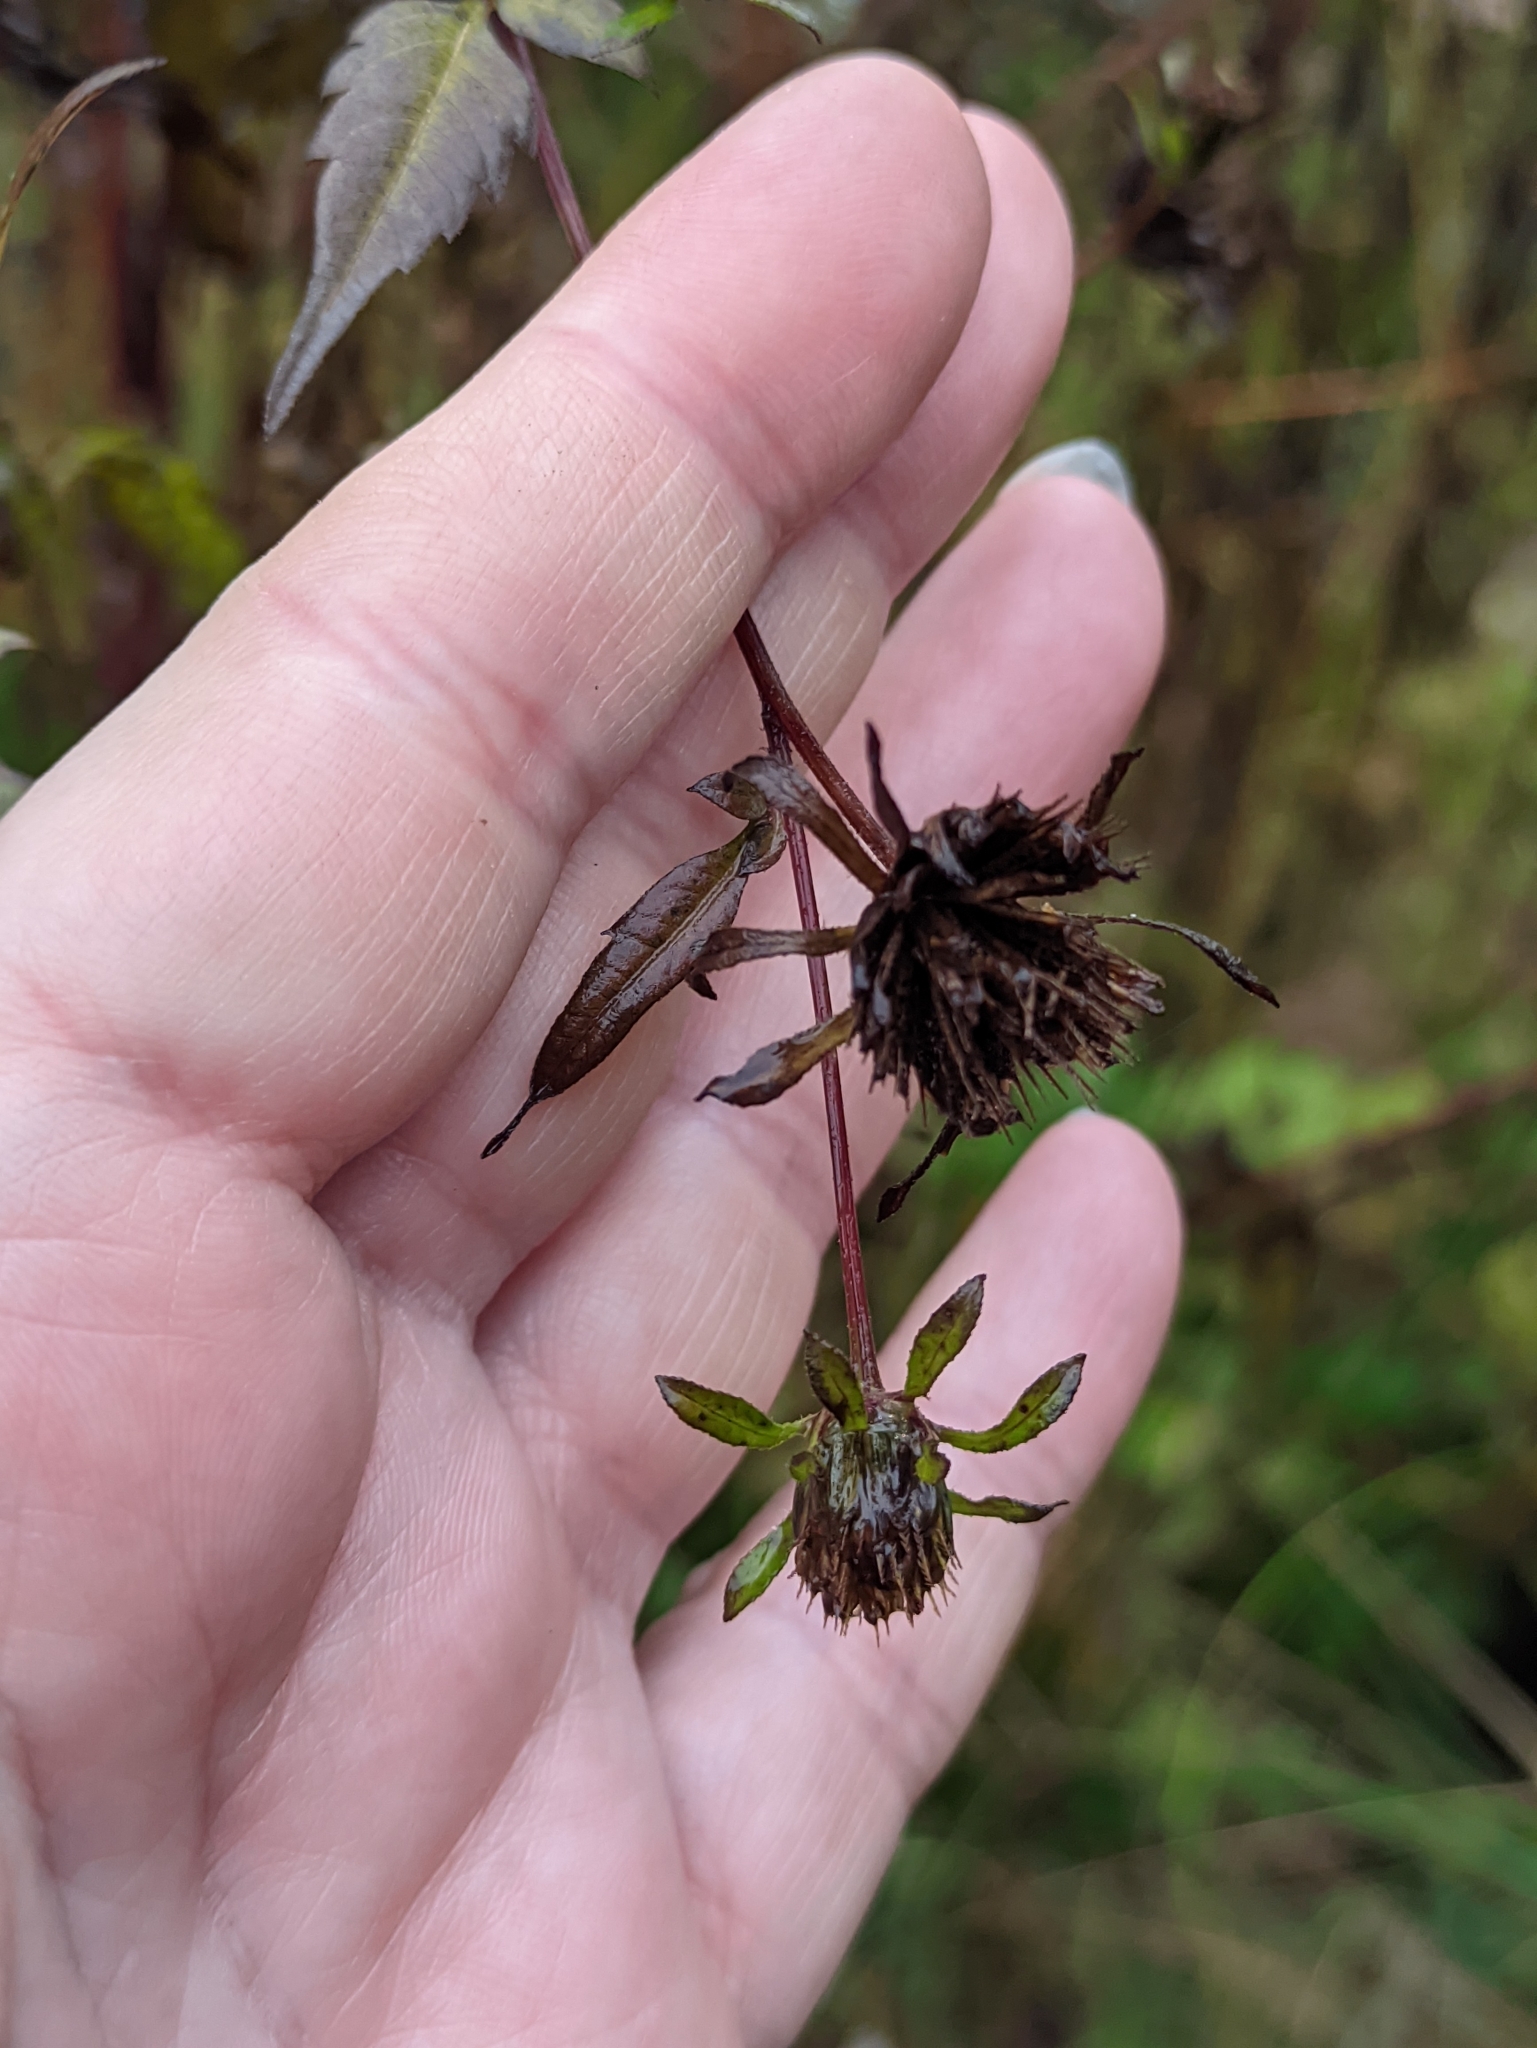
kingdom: Plantae
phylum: Tracheophyta
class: Magnoliopsida
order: Asterales
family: Asteraceae
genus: Bidens
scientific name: Bidens frondosa
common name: Beggarticks
